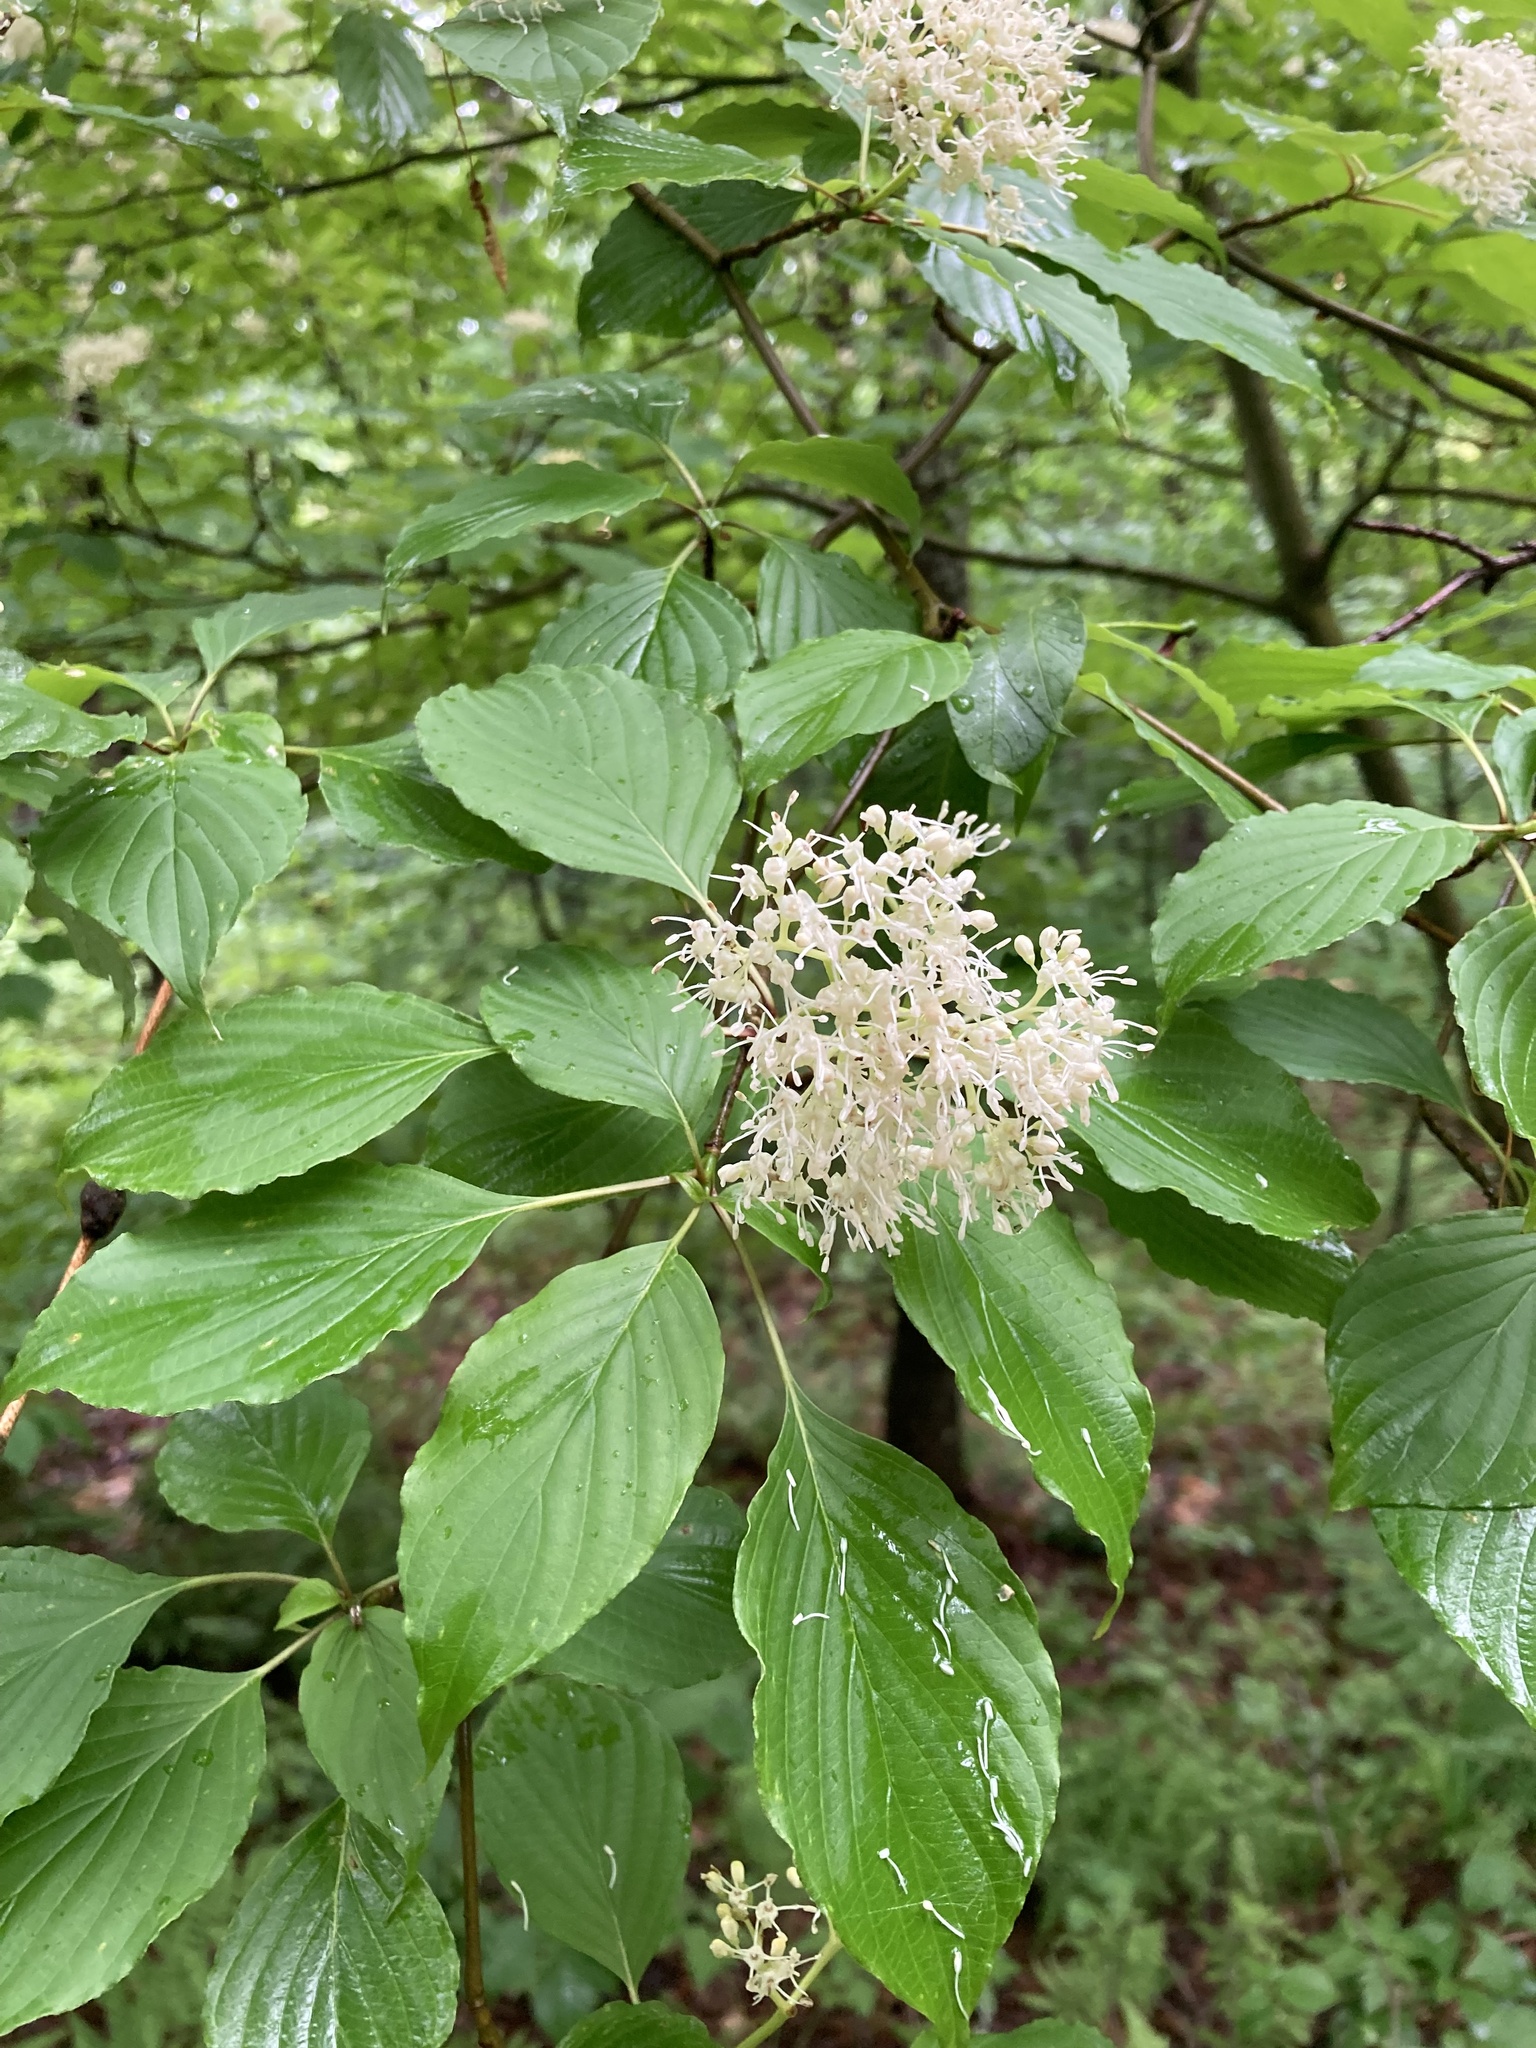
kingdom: Plantae
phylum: Tracheophyta
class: Magnoliopsida
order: Cornales
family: Cornaceae
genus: Cornus
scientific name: Cornus alternifolia
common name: Pagoda dogwood
